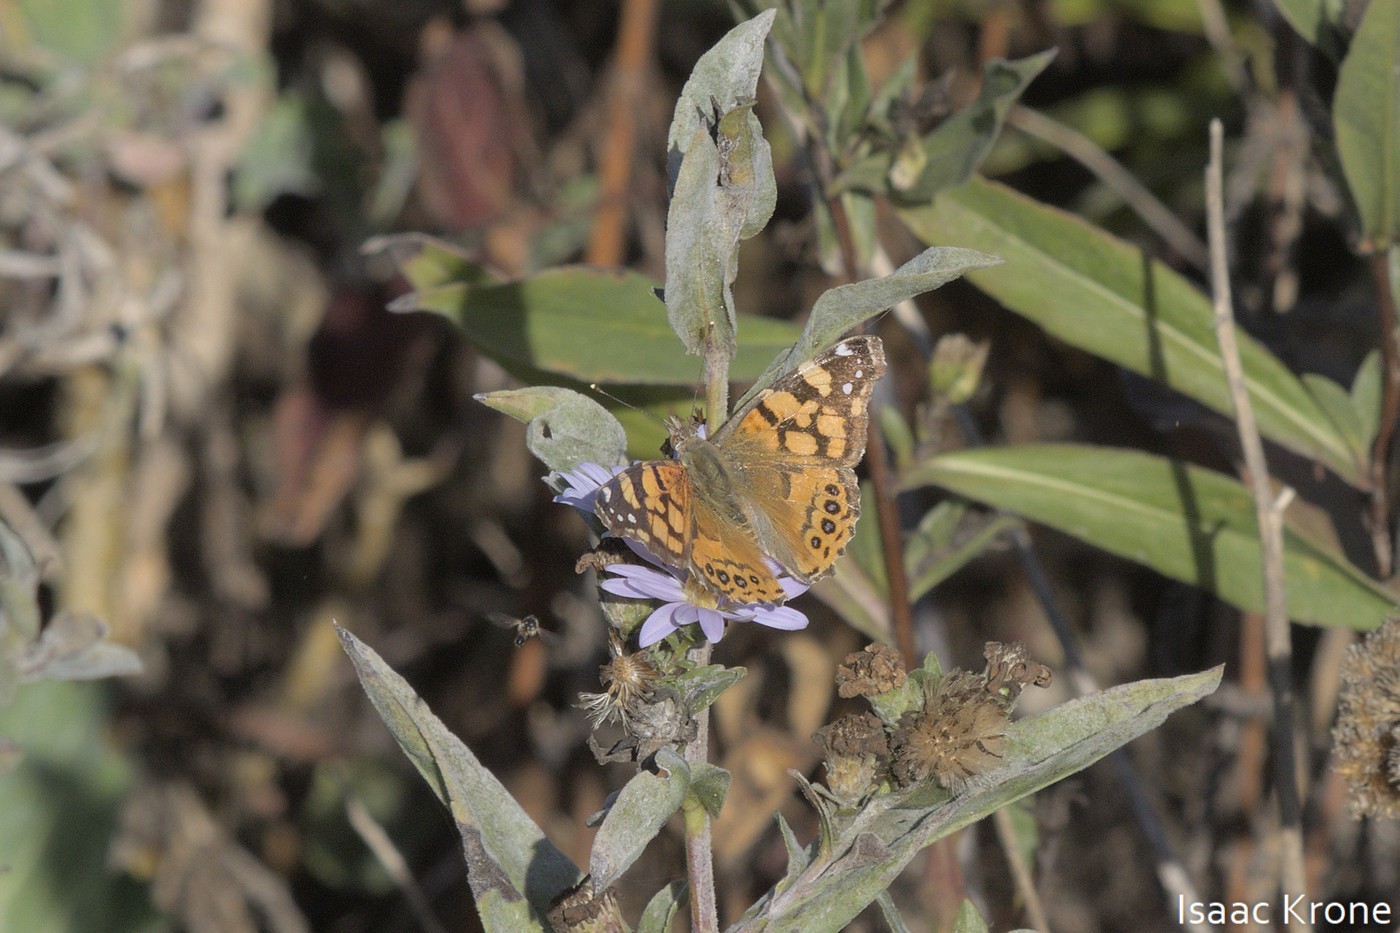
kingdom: Animalia
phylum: Arthropoda
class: Insecta
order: Lepidoptera
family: Nymphalidae
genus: Vanessa
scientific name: Vanessa annabella
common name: West coast lady
